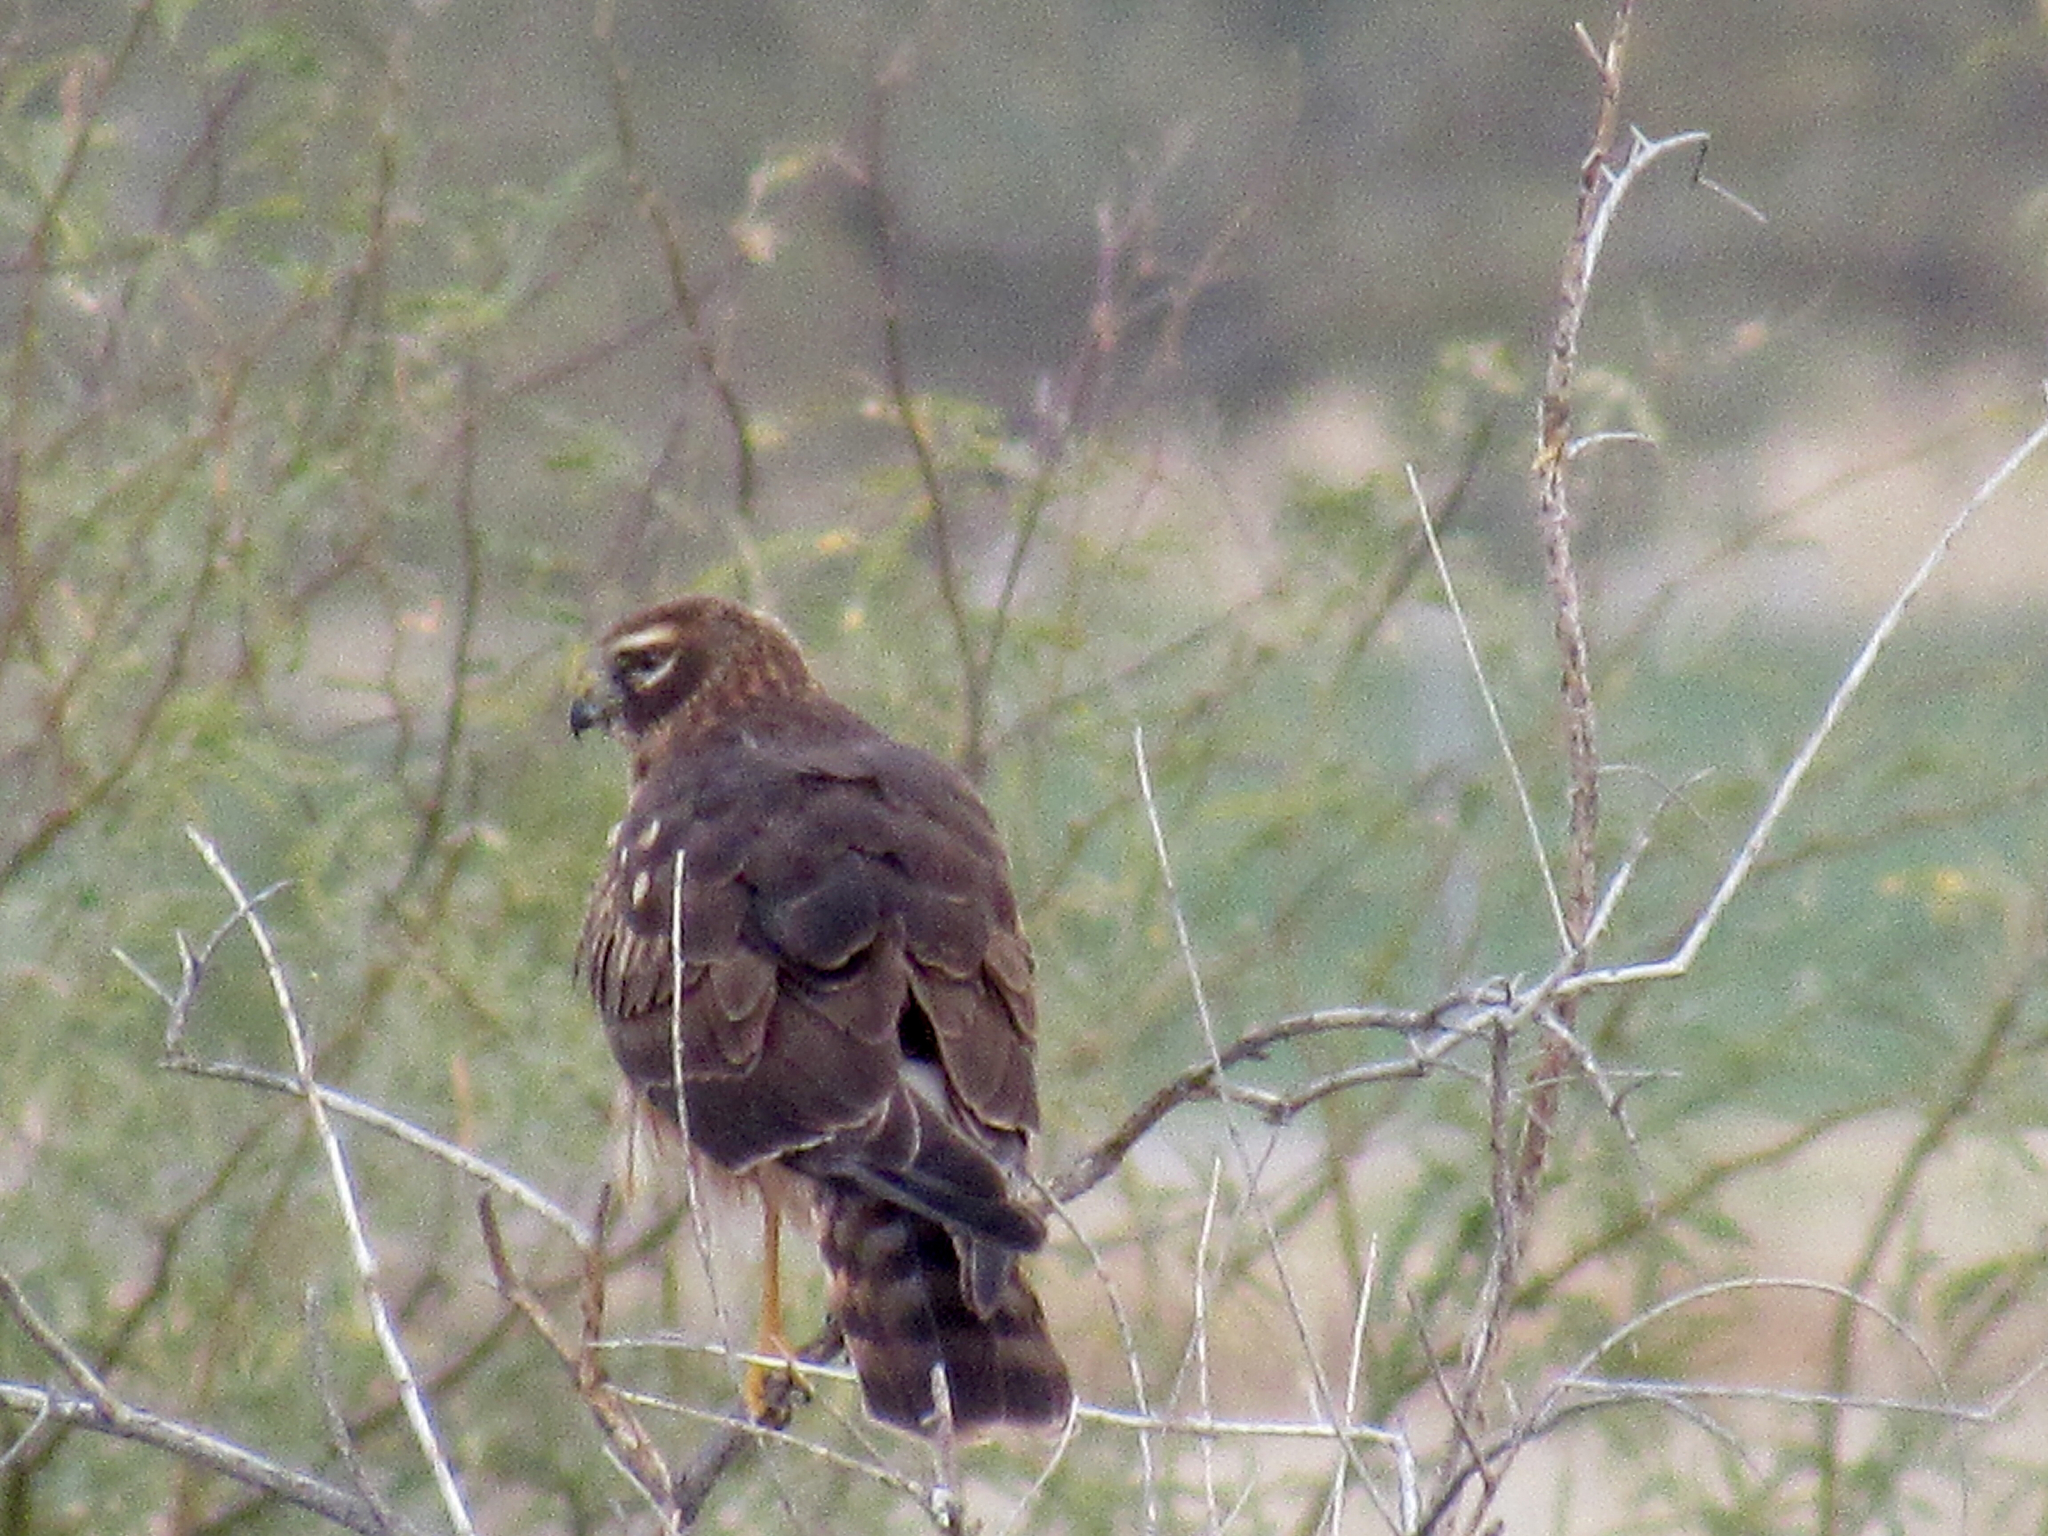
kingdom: Animalia
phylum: Chordata
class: Aves
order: Accipitriformes
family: Accipitridae
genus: Circus
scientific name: Circus cyaneus
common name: Hen harrier
